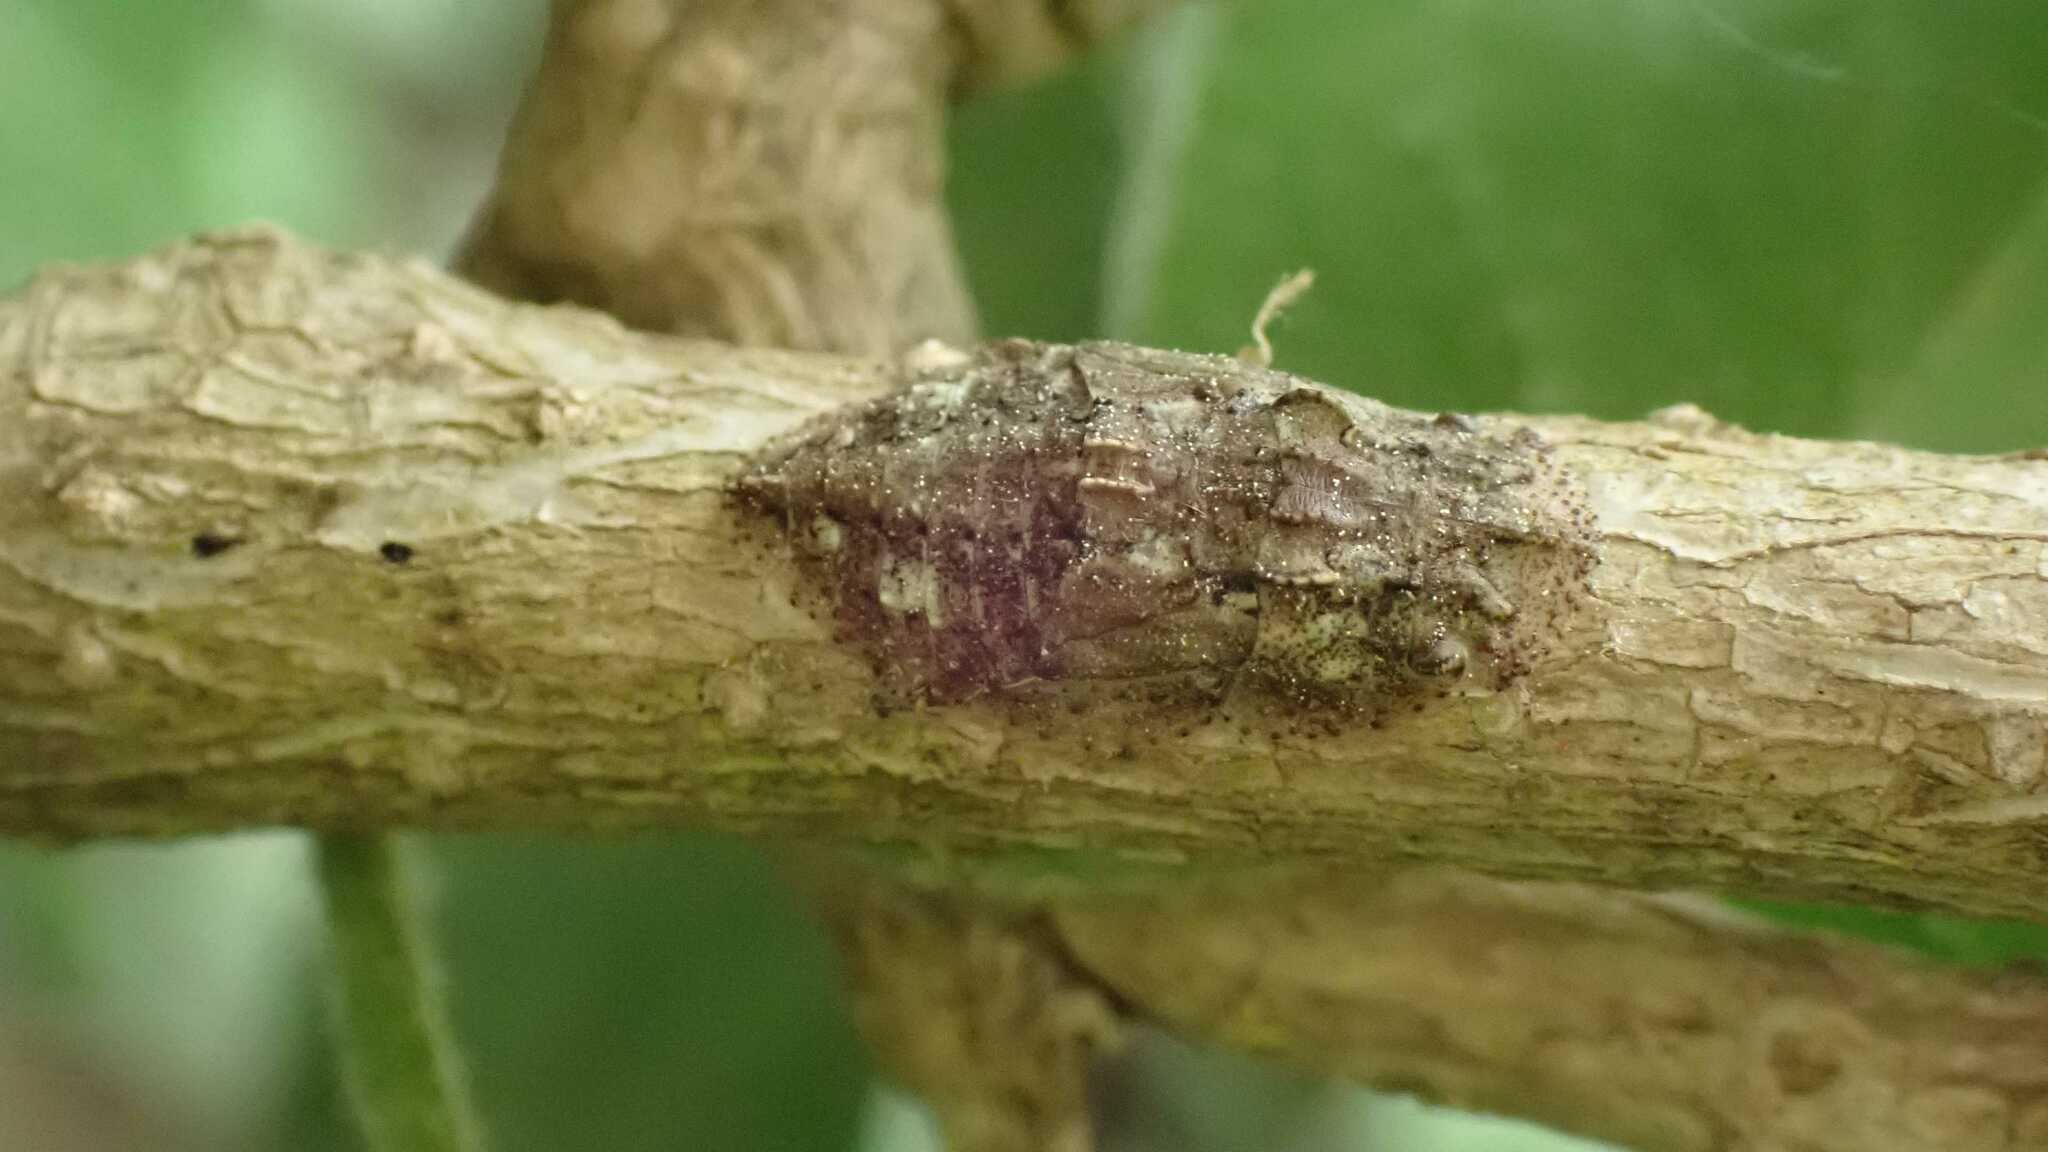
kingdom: Animalia
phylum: Arthropoda
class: Insecta
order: Hemiptera
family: Cicadellidae
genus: Ledra
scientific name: Ledra aurita
